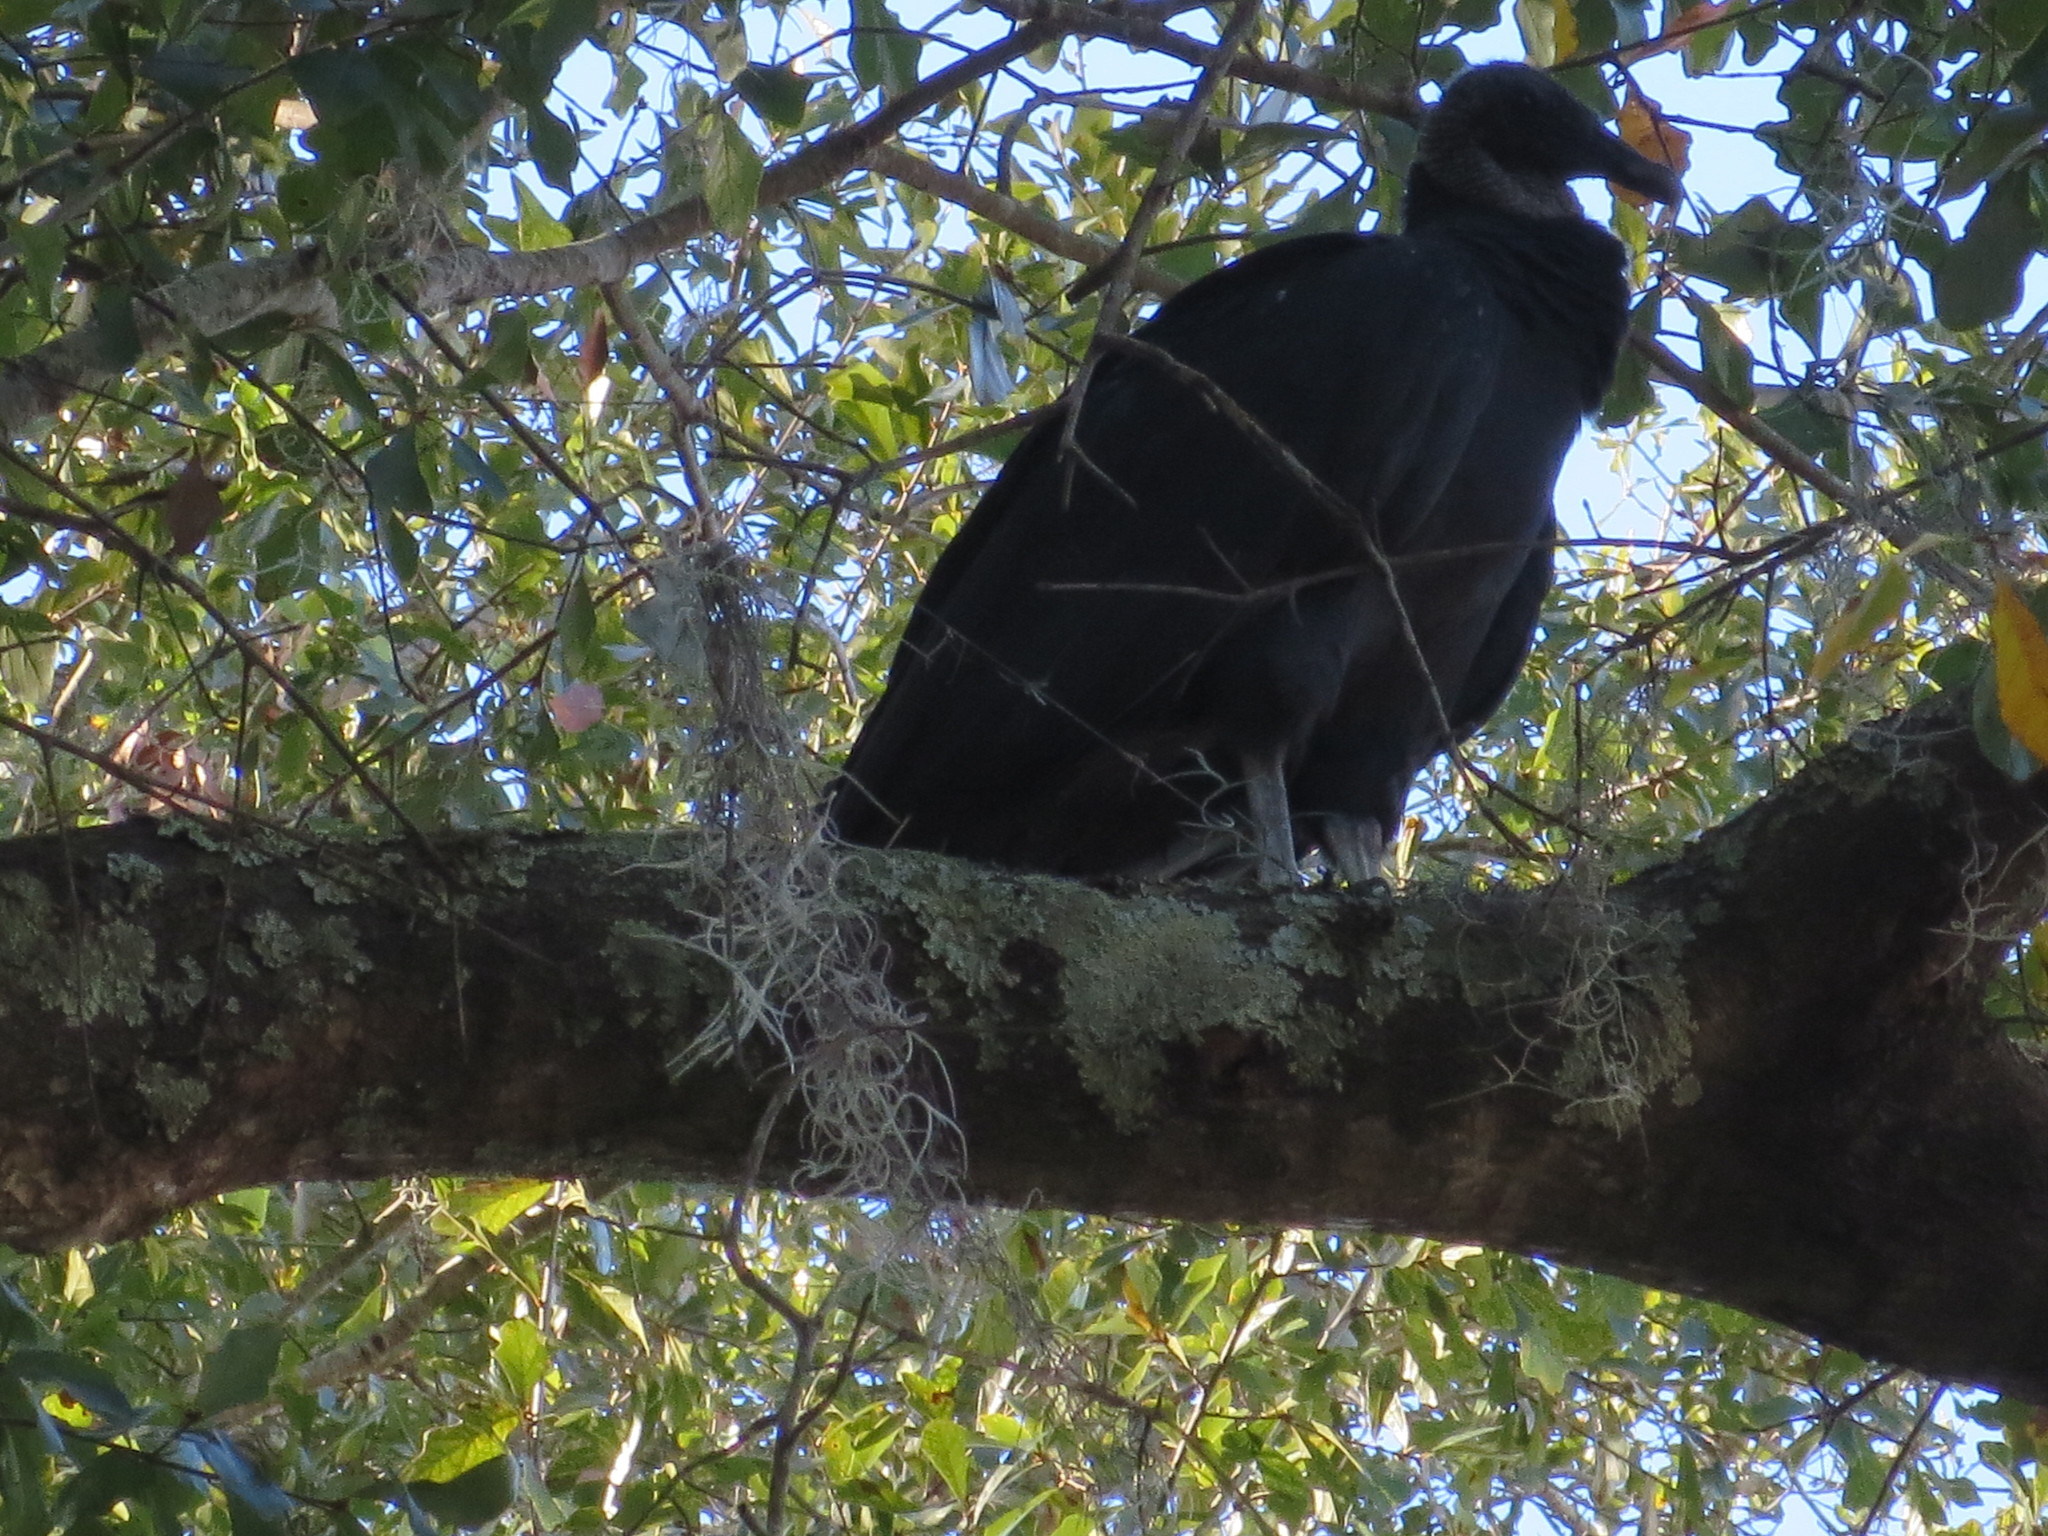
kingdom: Animalia
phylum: Chordata
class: Aves
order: Accipitriformes
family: Cathartidae
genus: Coragyps
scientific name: Coragyps atratus
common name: Black vulture
